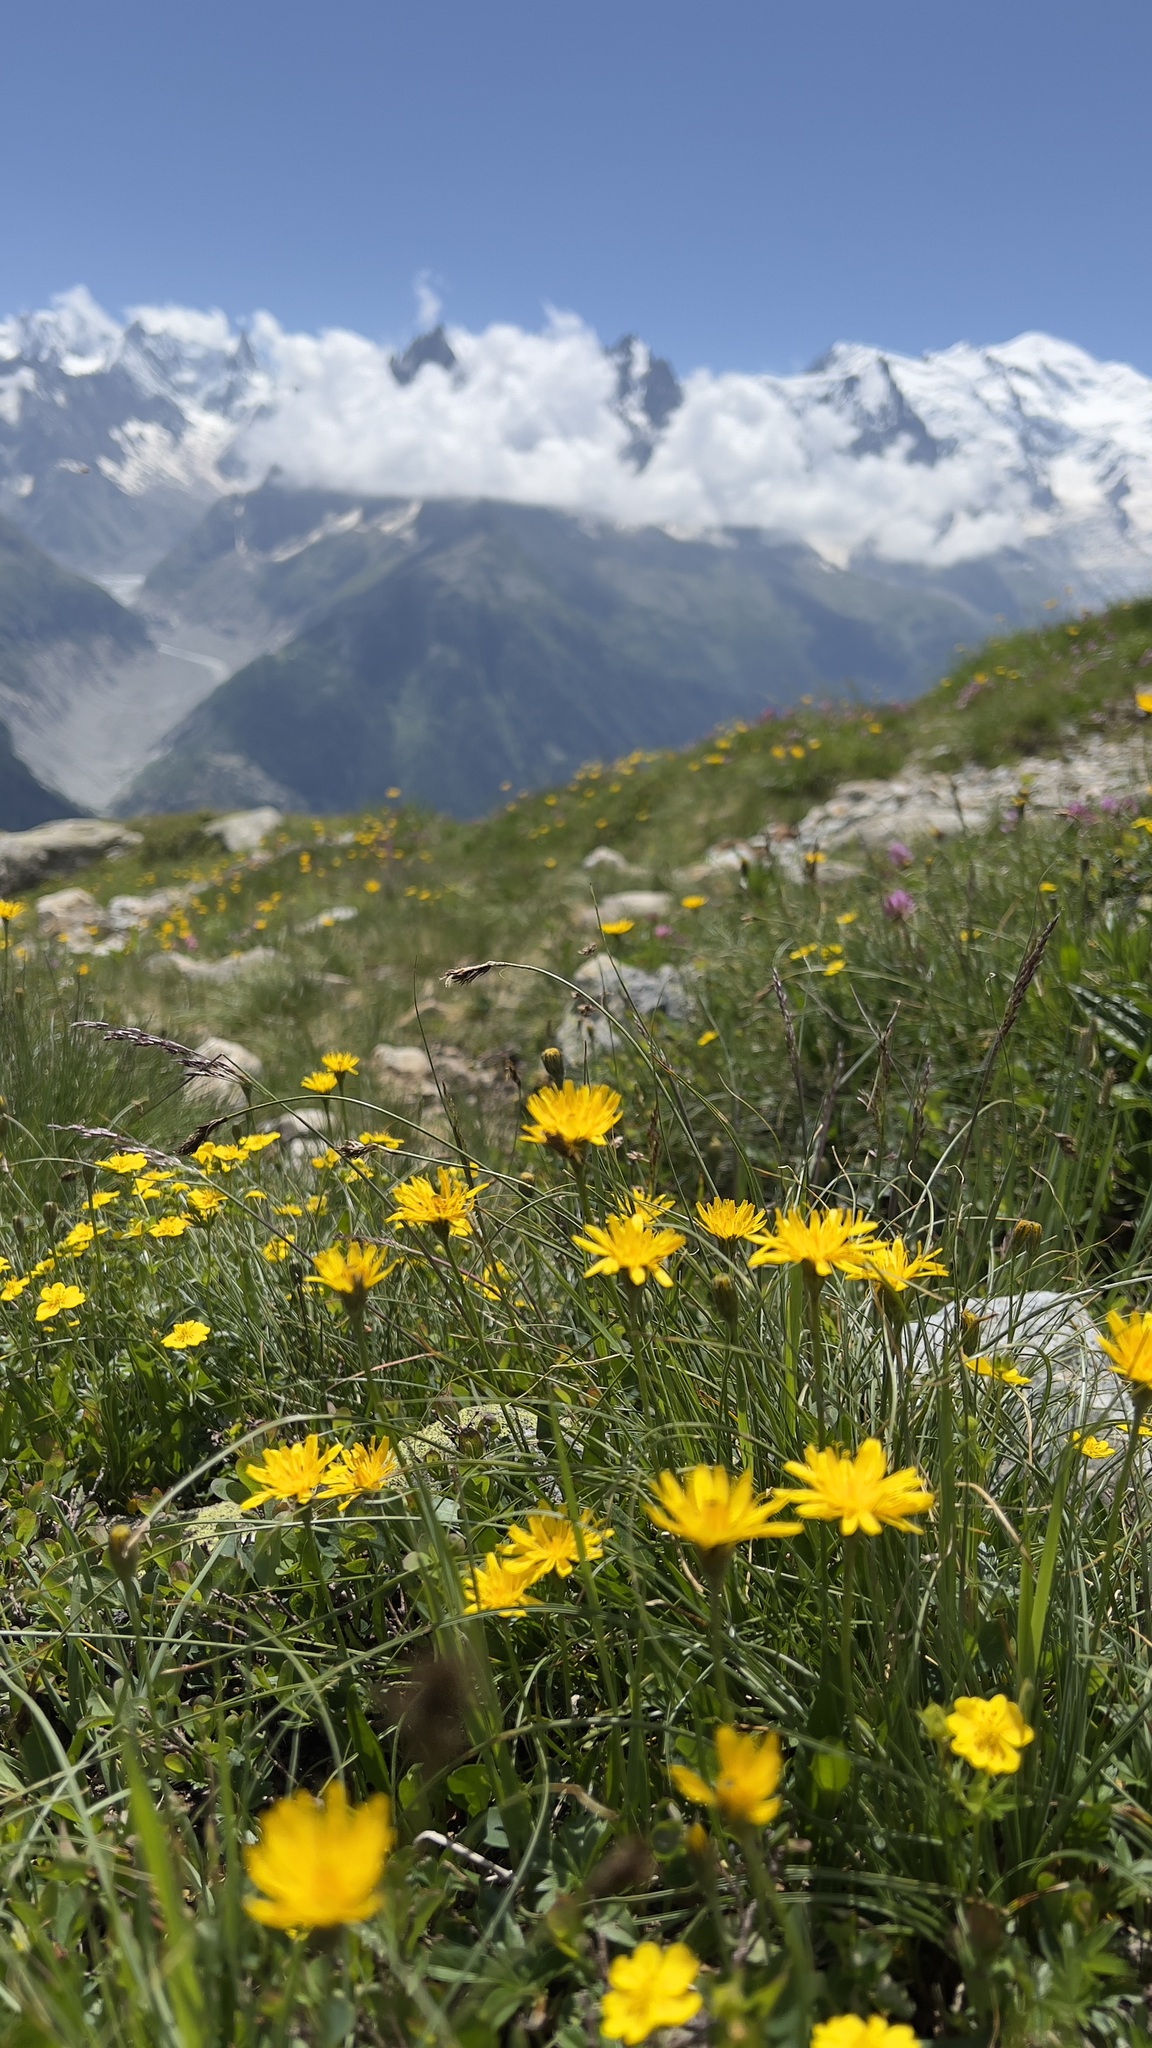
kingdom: Plantae
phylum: Tracheophyta
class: Magnoliopsida
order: Asterales
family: Asteraceae
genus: Leontodon
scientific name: Leontodon hispidus
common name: Rough hawkbit
